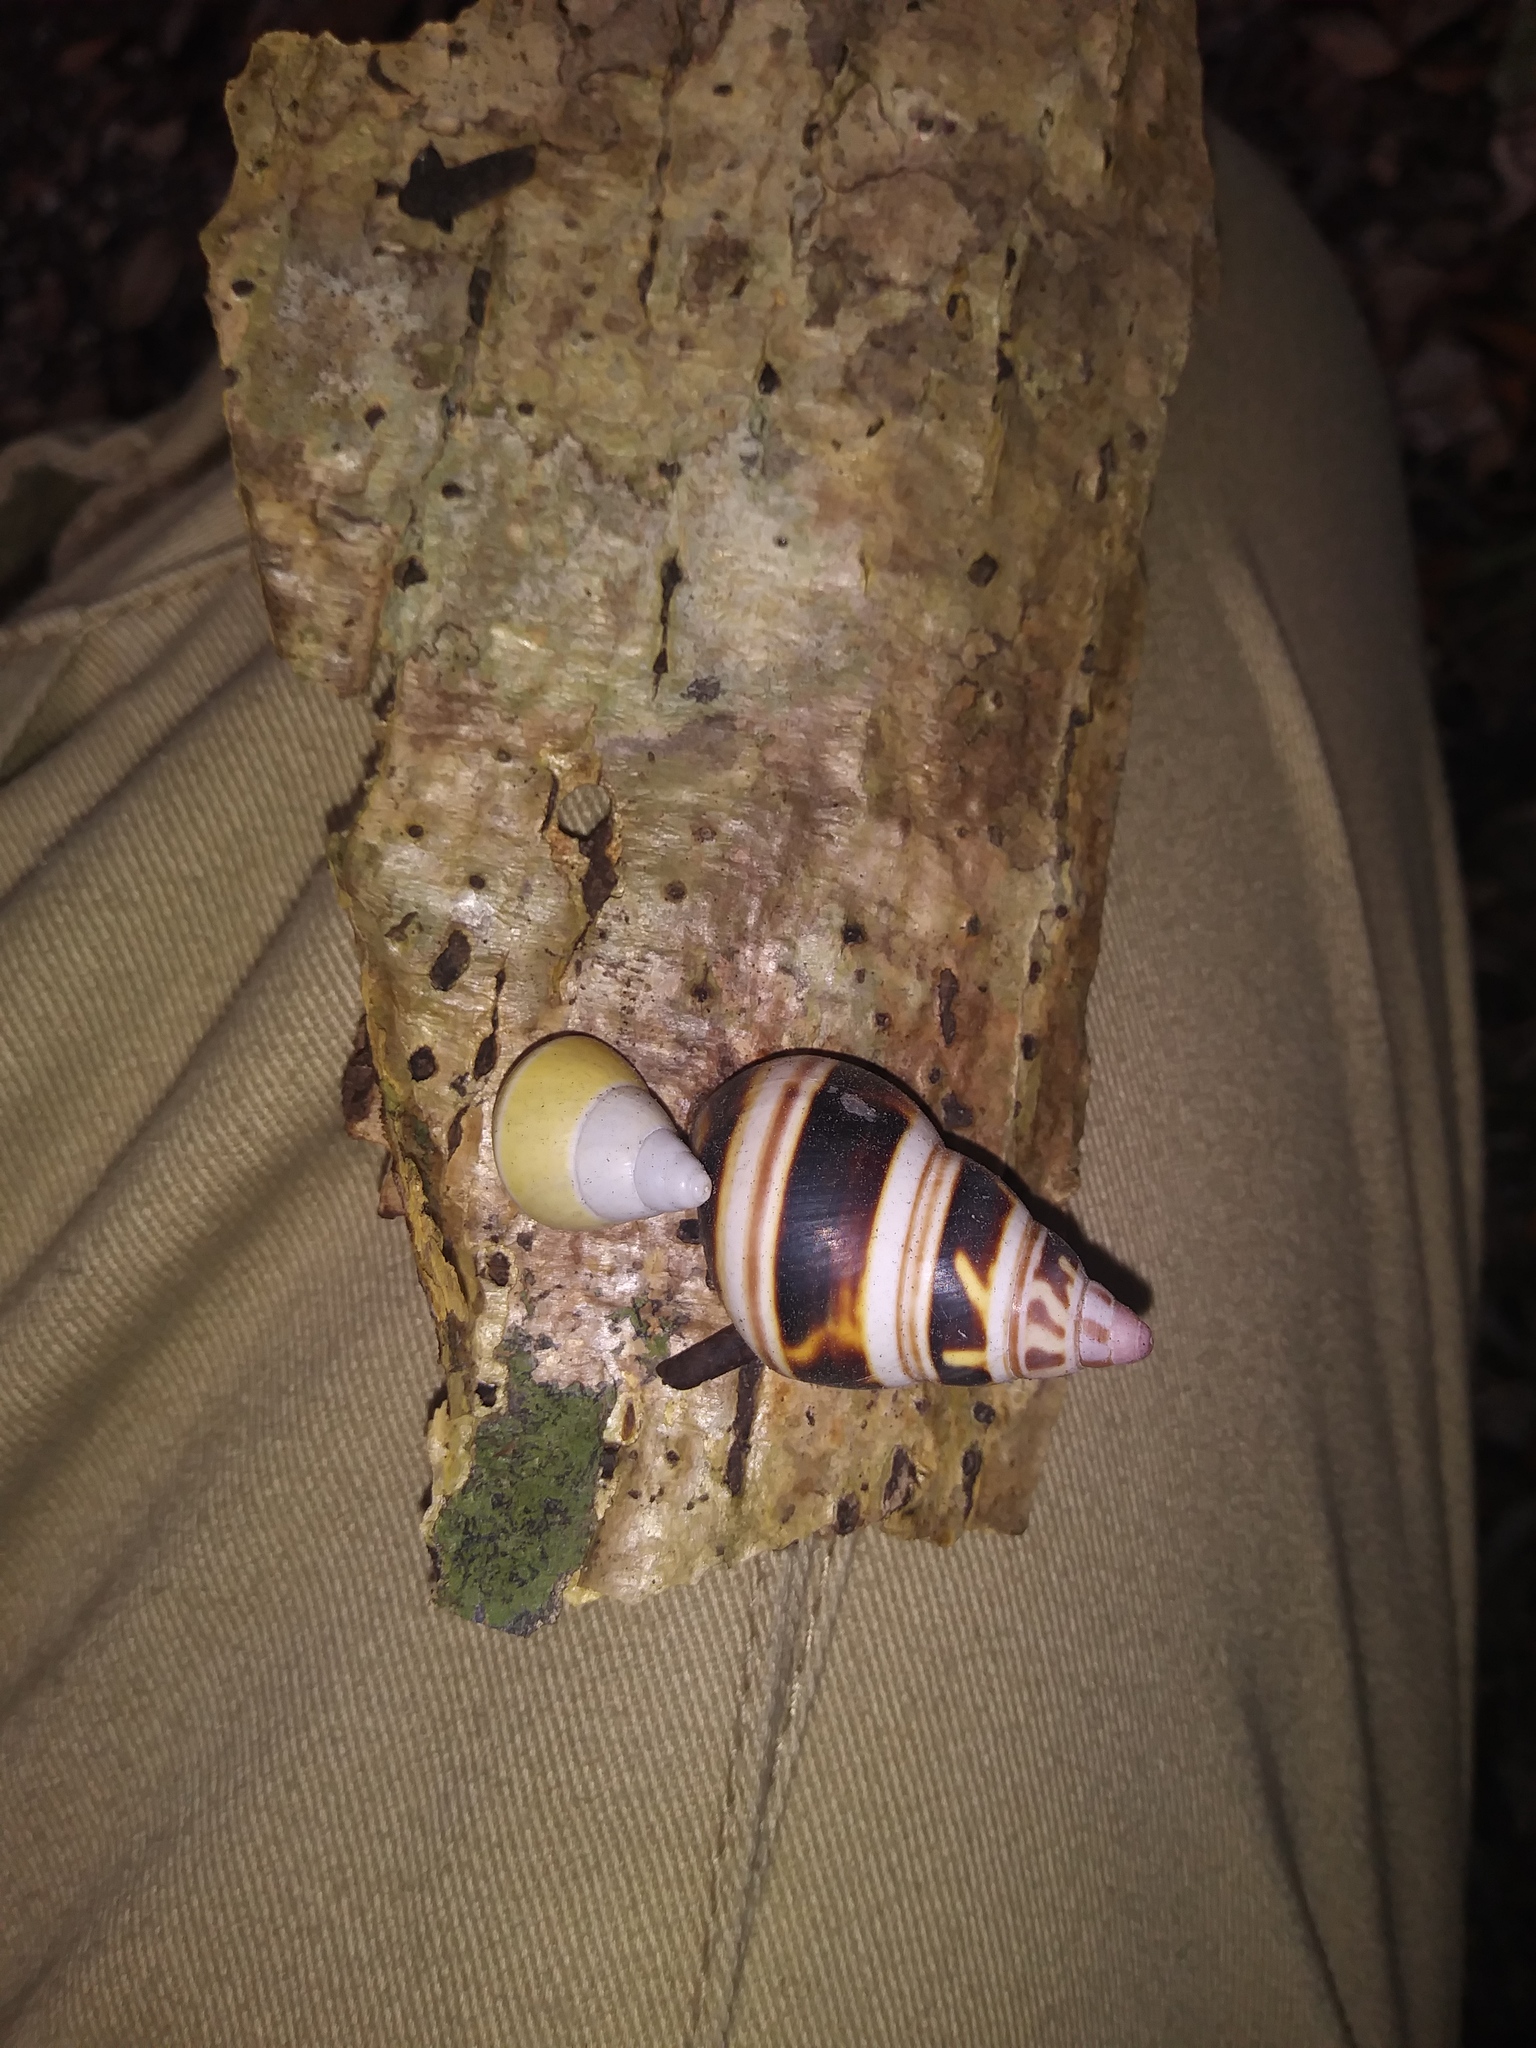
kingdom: Animalia
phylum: Mollusca
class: Gastropoda
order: Stylommatophora
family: Orthalicidae
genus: Liguus
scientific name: Liguus fasciatus
